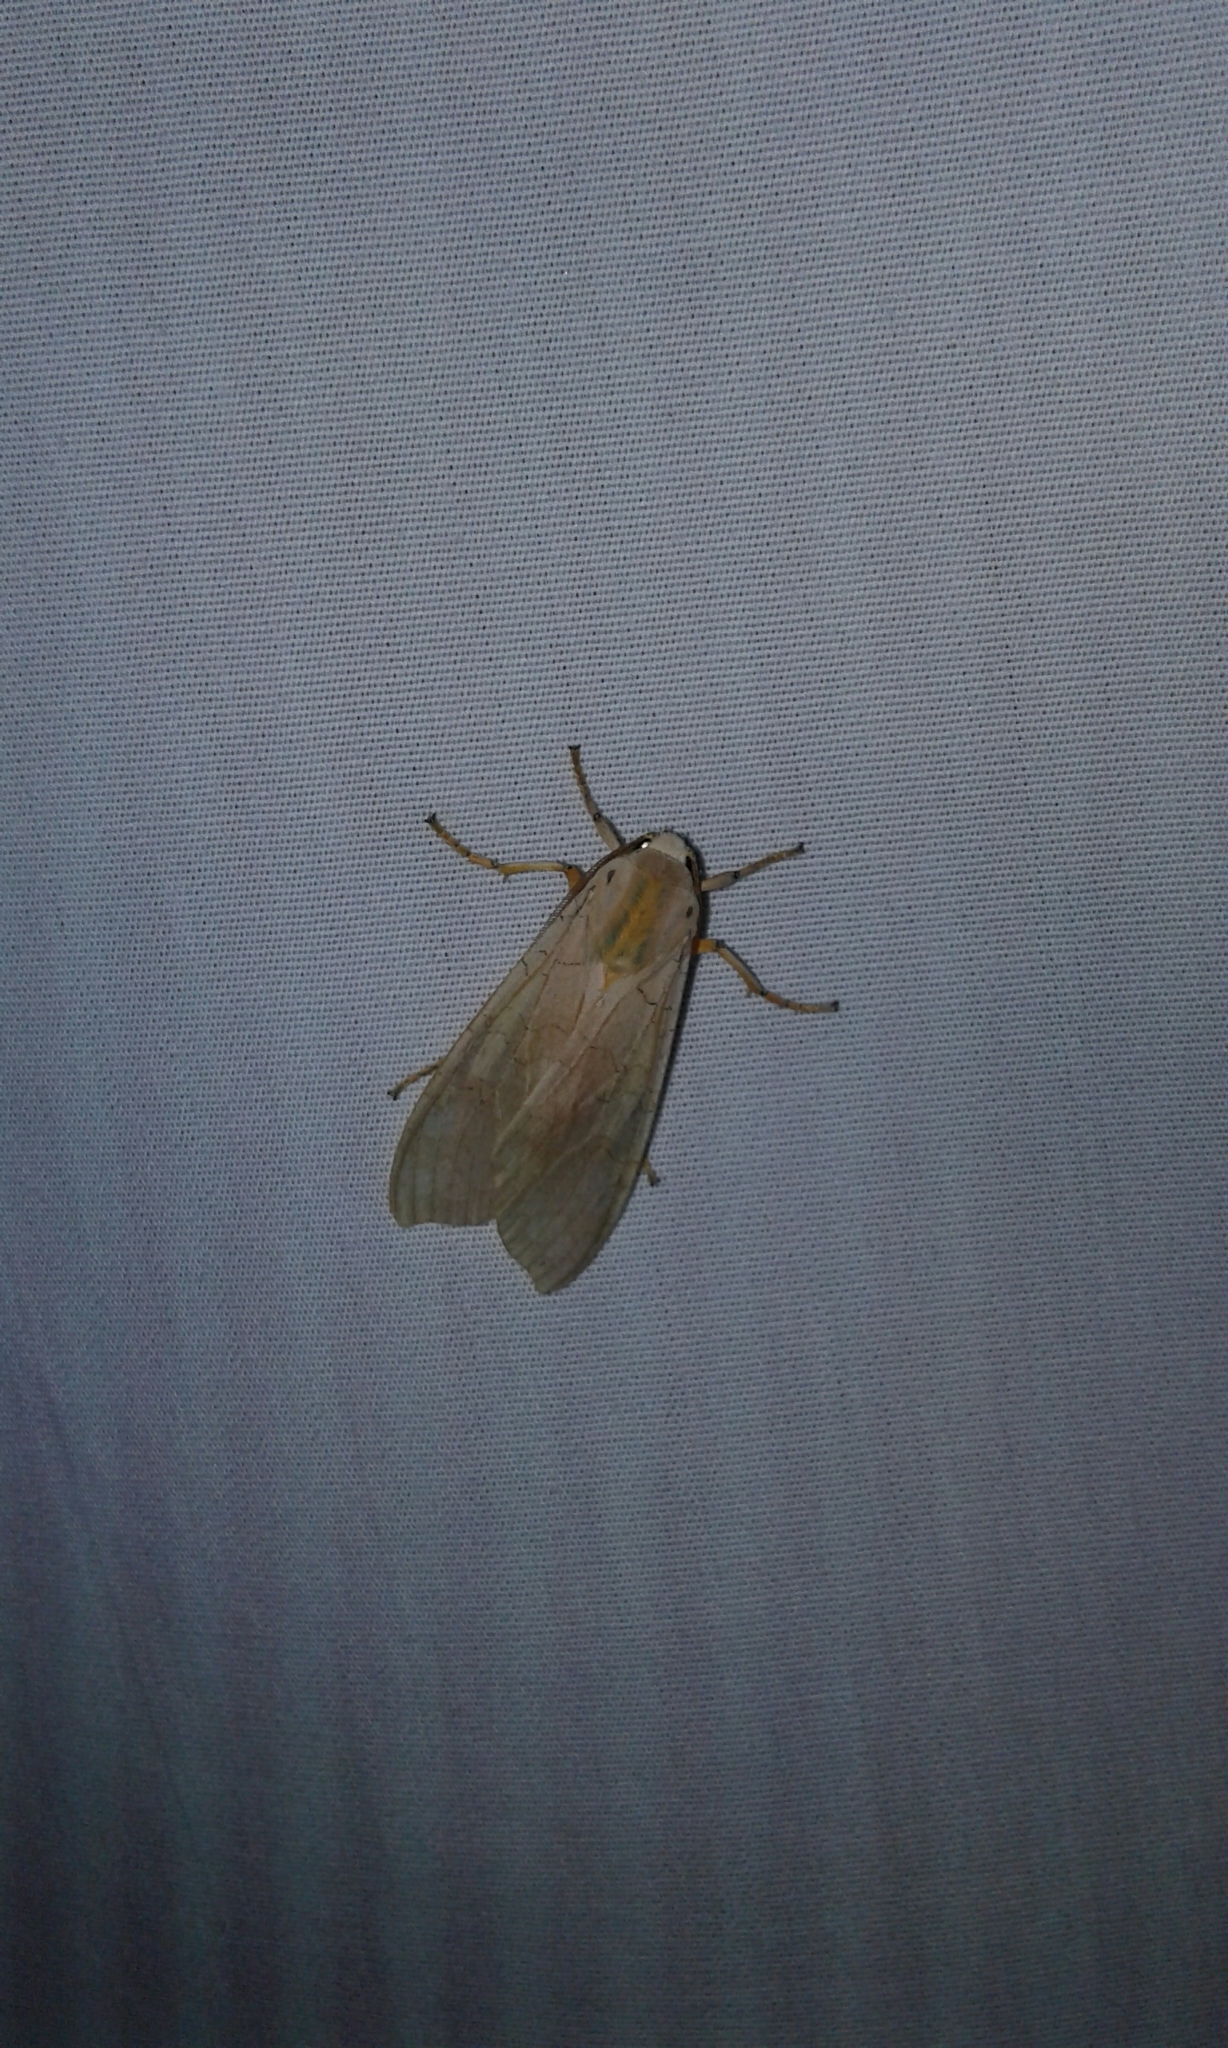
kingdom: Animalia
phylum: Arthropoda
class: Insecta
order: Lepidoptera
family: Erebidae
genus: Halysidota
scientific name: Halysidota tessellaris
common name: Banded tussock moth
